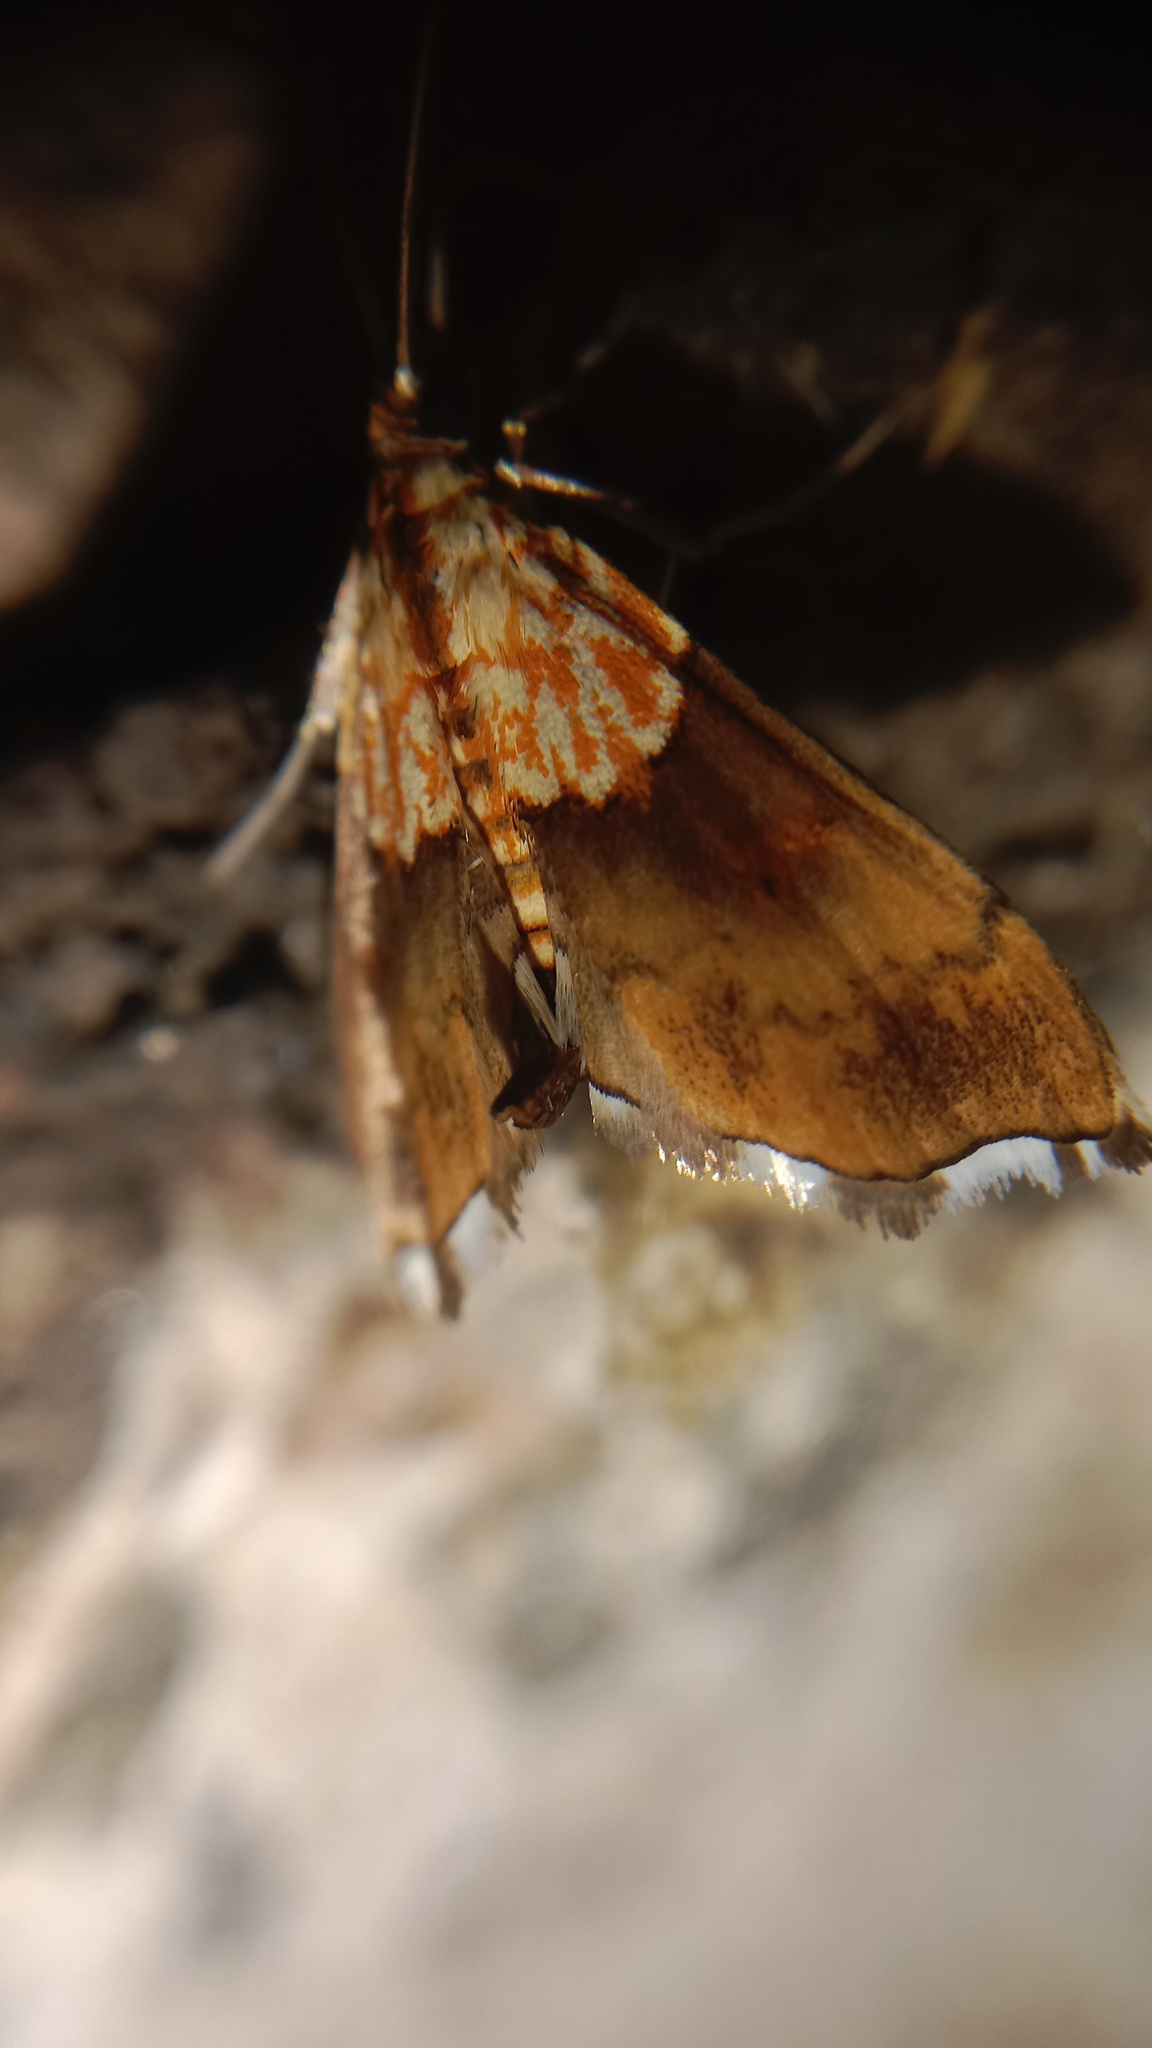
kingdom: Animalia
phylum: Arthropoda
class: Insecta
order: Lepidoptera
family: Crambidae
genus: Agrotera
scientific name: Agrotera nemoralis
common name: Beautiful pearl
